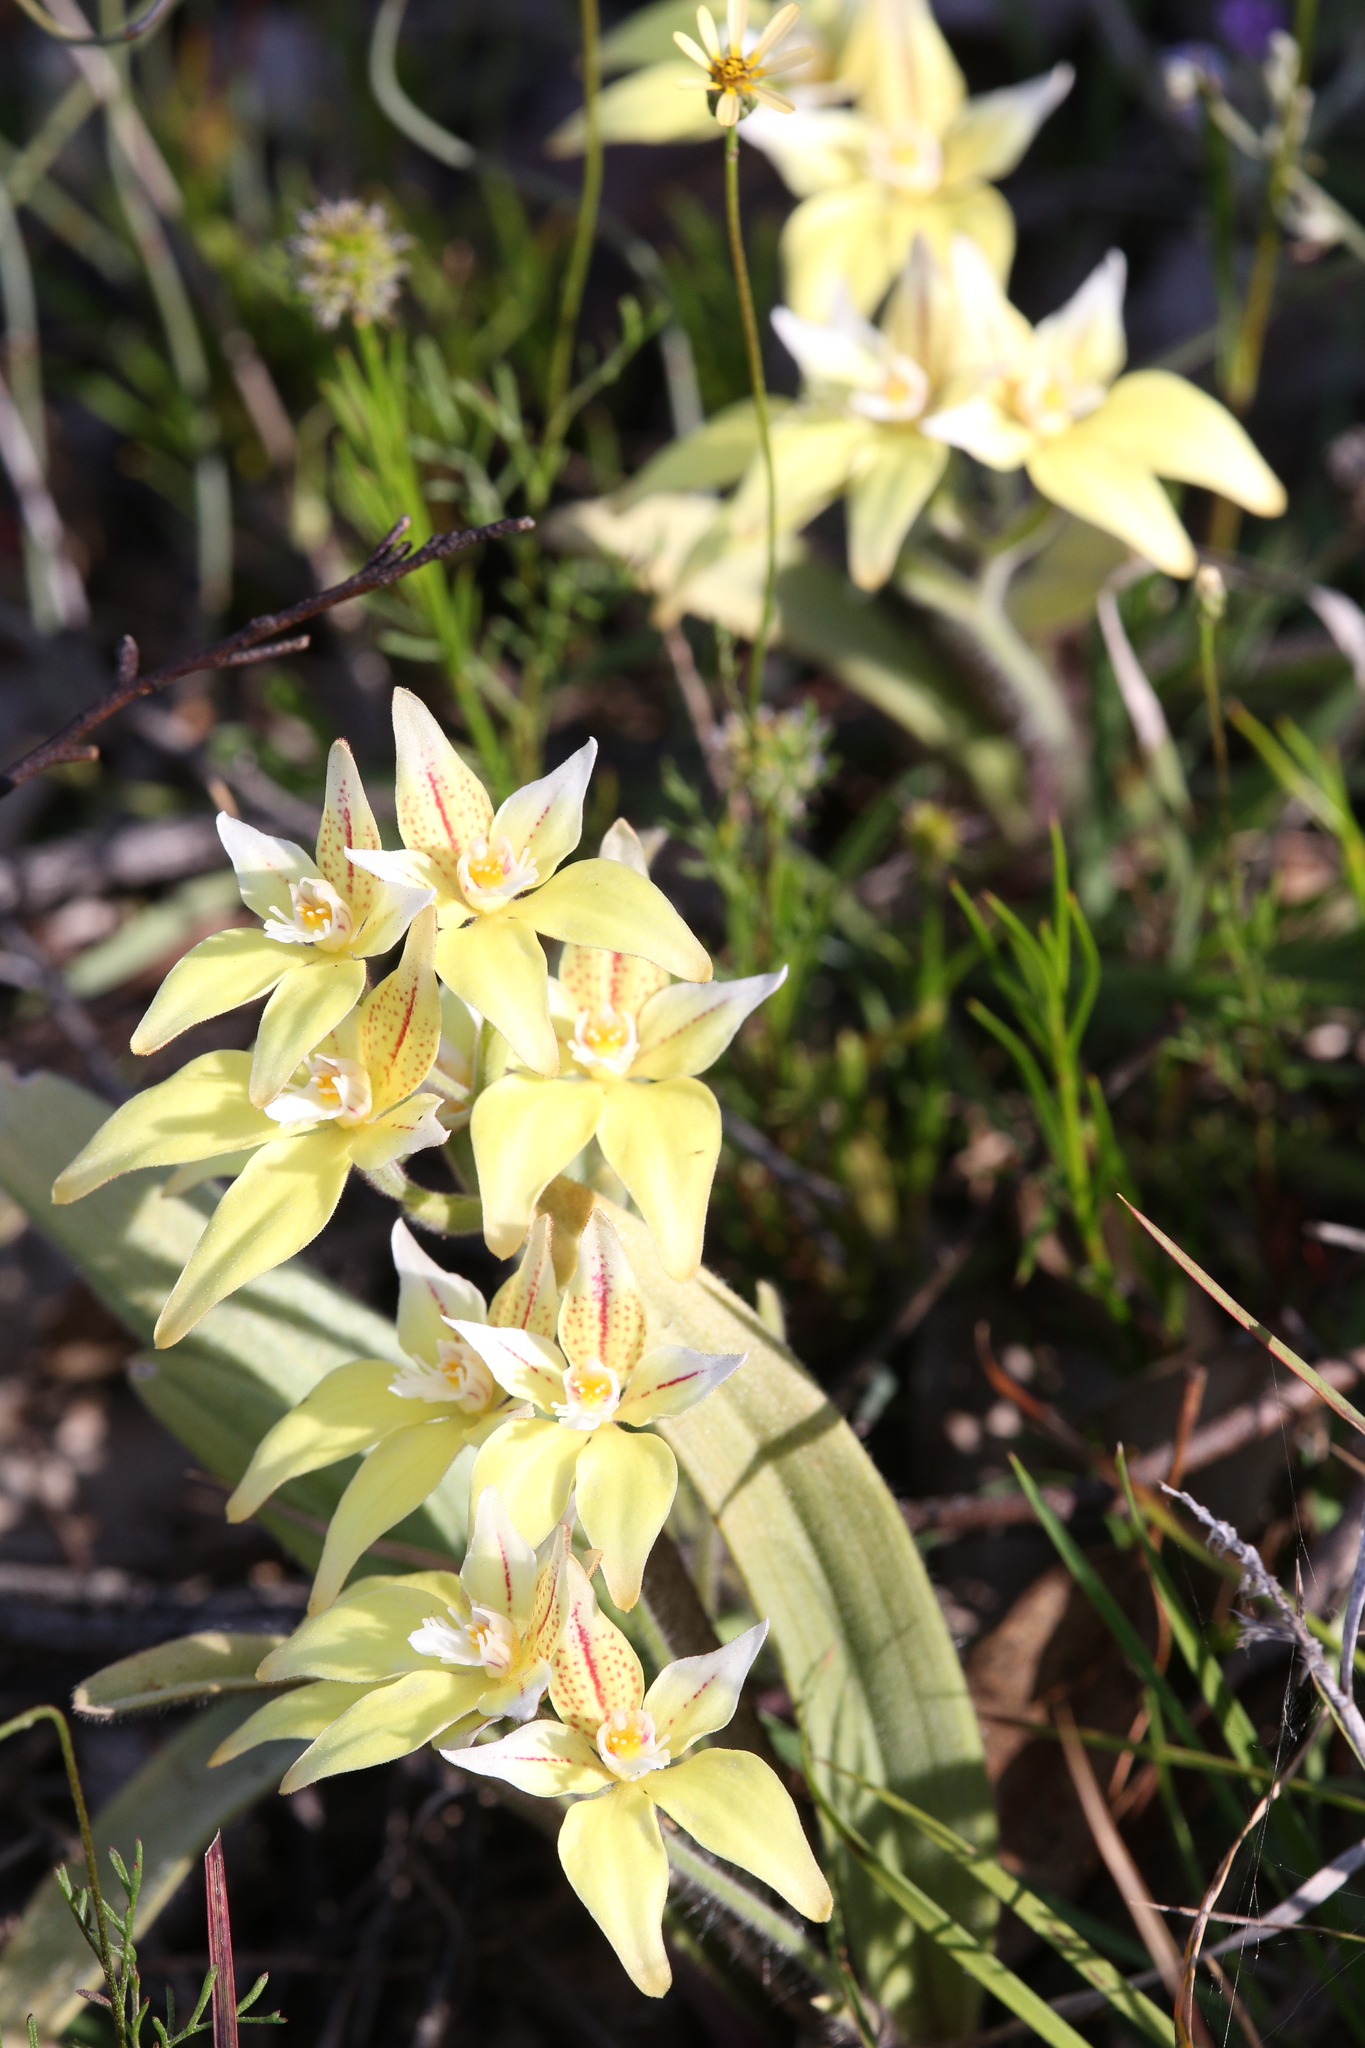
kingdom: Plantae
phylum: Tracheophyta
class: Liliopsida
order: Asparagales
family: Orchidaceae
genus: Caladenia
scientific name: Caladenia flava
